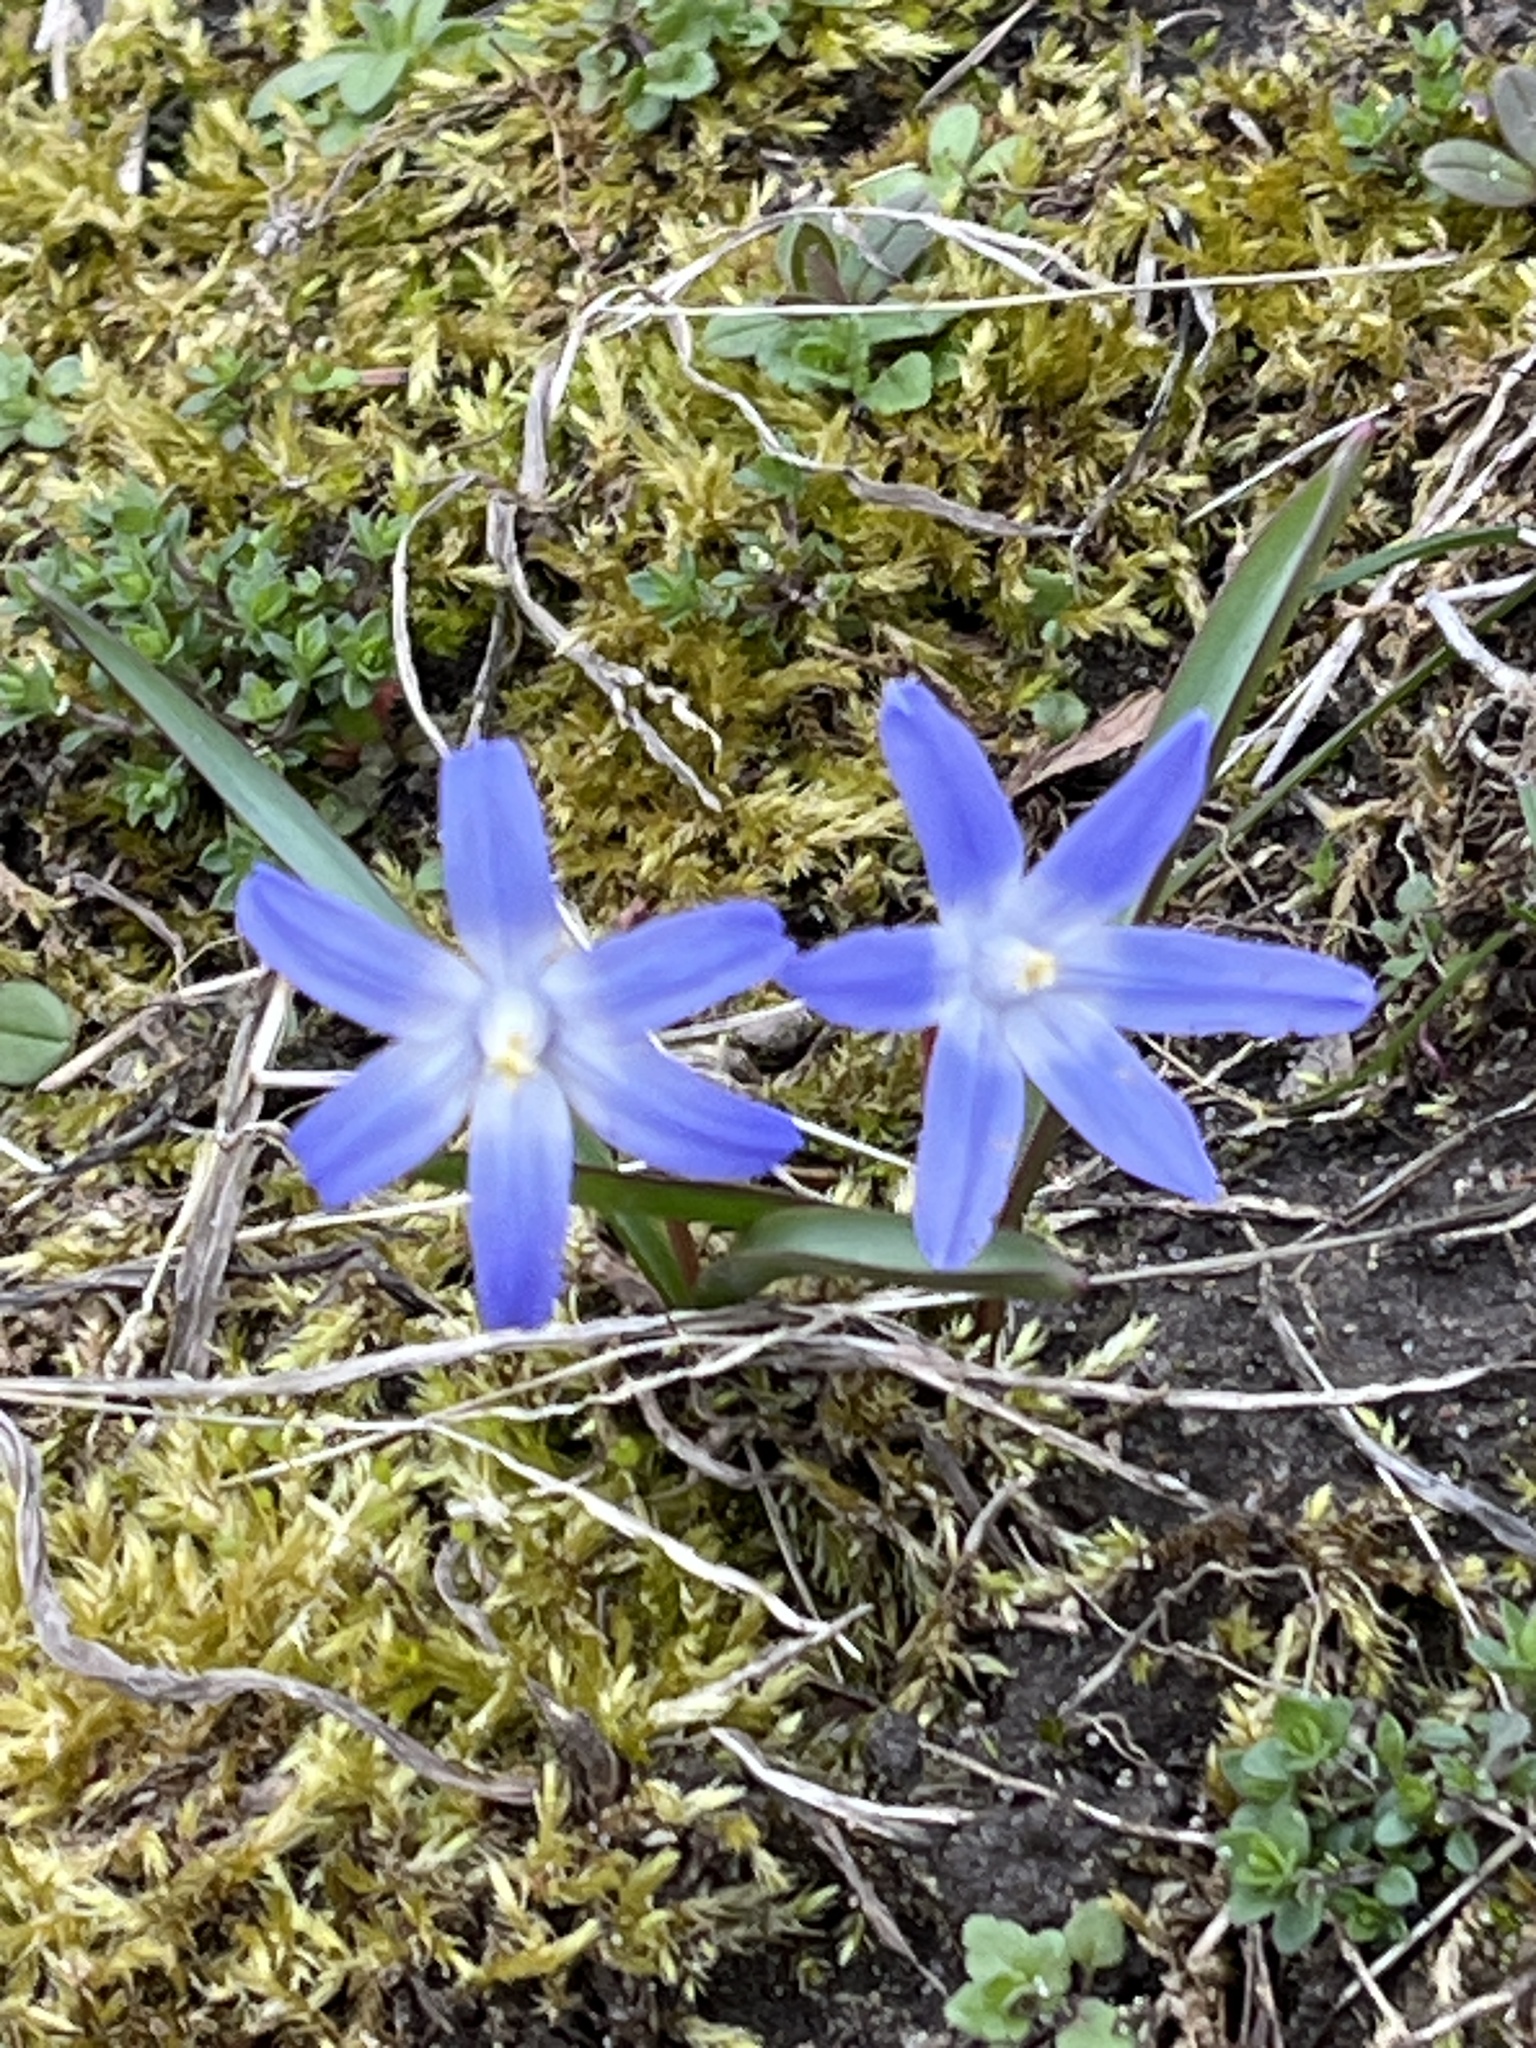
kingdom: Plantae
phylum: Tracheophyta
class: Liliopsida
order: Asparagales
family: Asparagaceae
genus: Scilla
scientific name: Scilla luciliae
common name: Boissier's glory-of-the-snow
